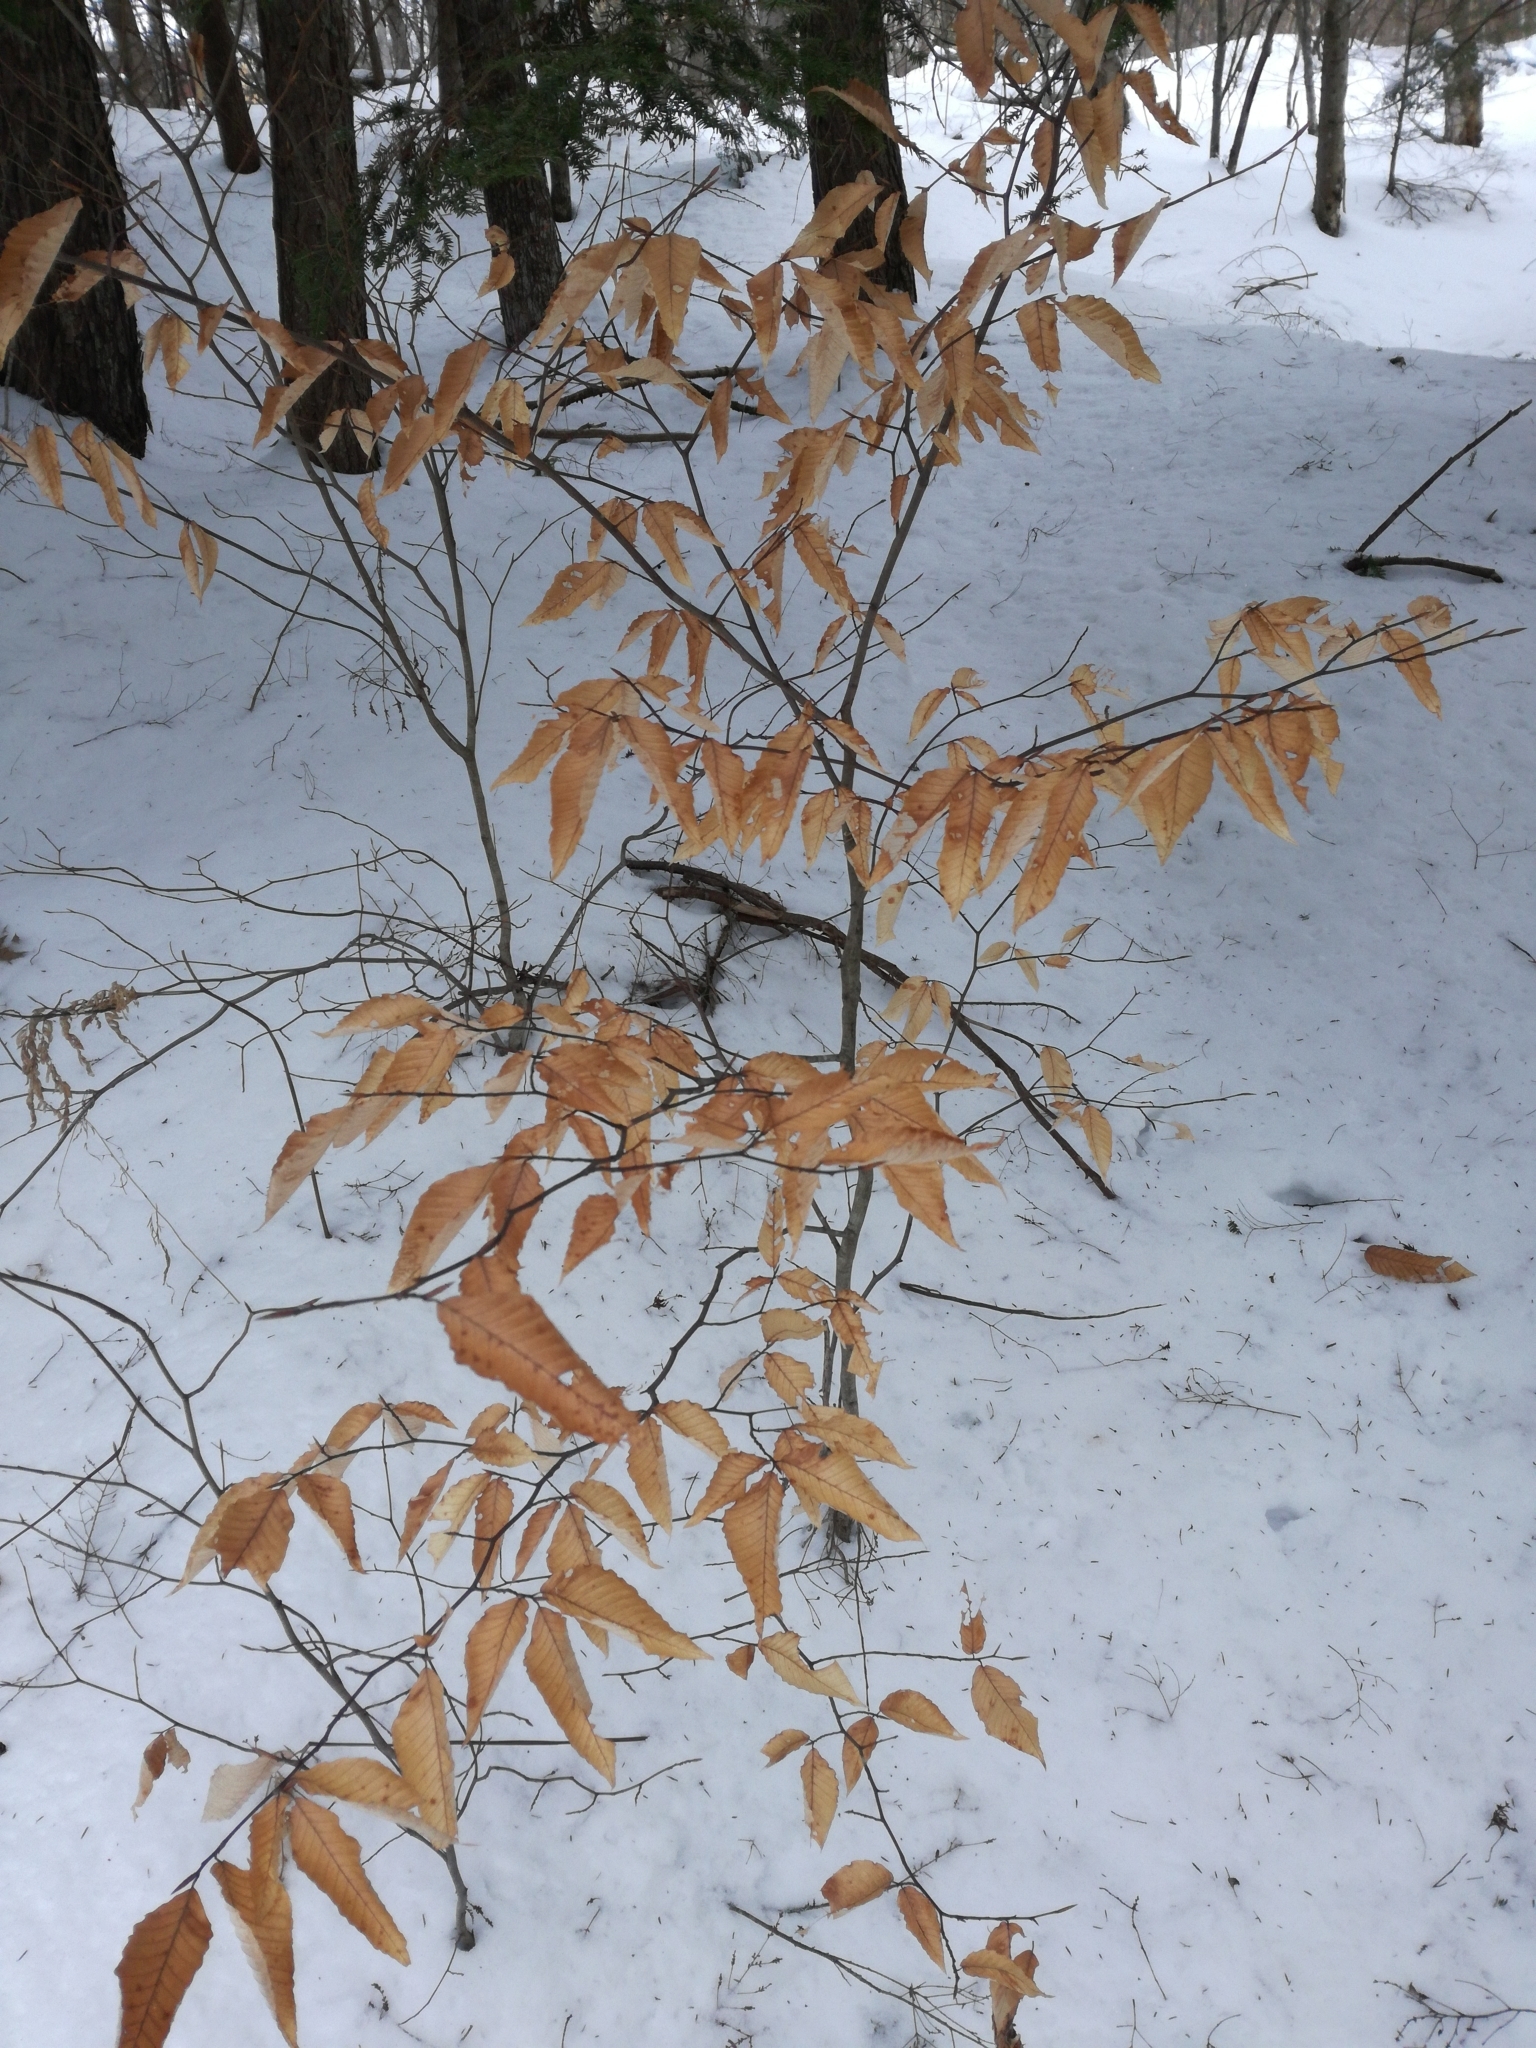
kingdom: Plantae
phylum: Tracheophyta
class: Magnoliopsida
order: Fagales
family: Fagaceae
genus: Fagus
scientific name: Fagus grandifolia
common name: American beech
